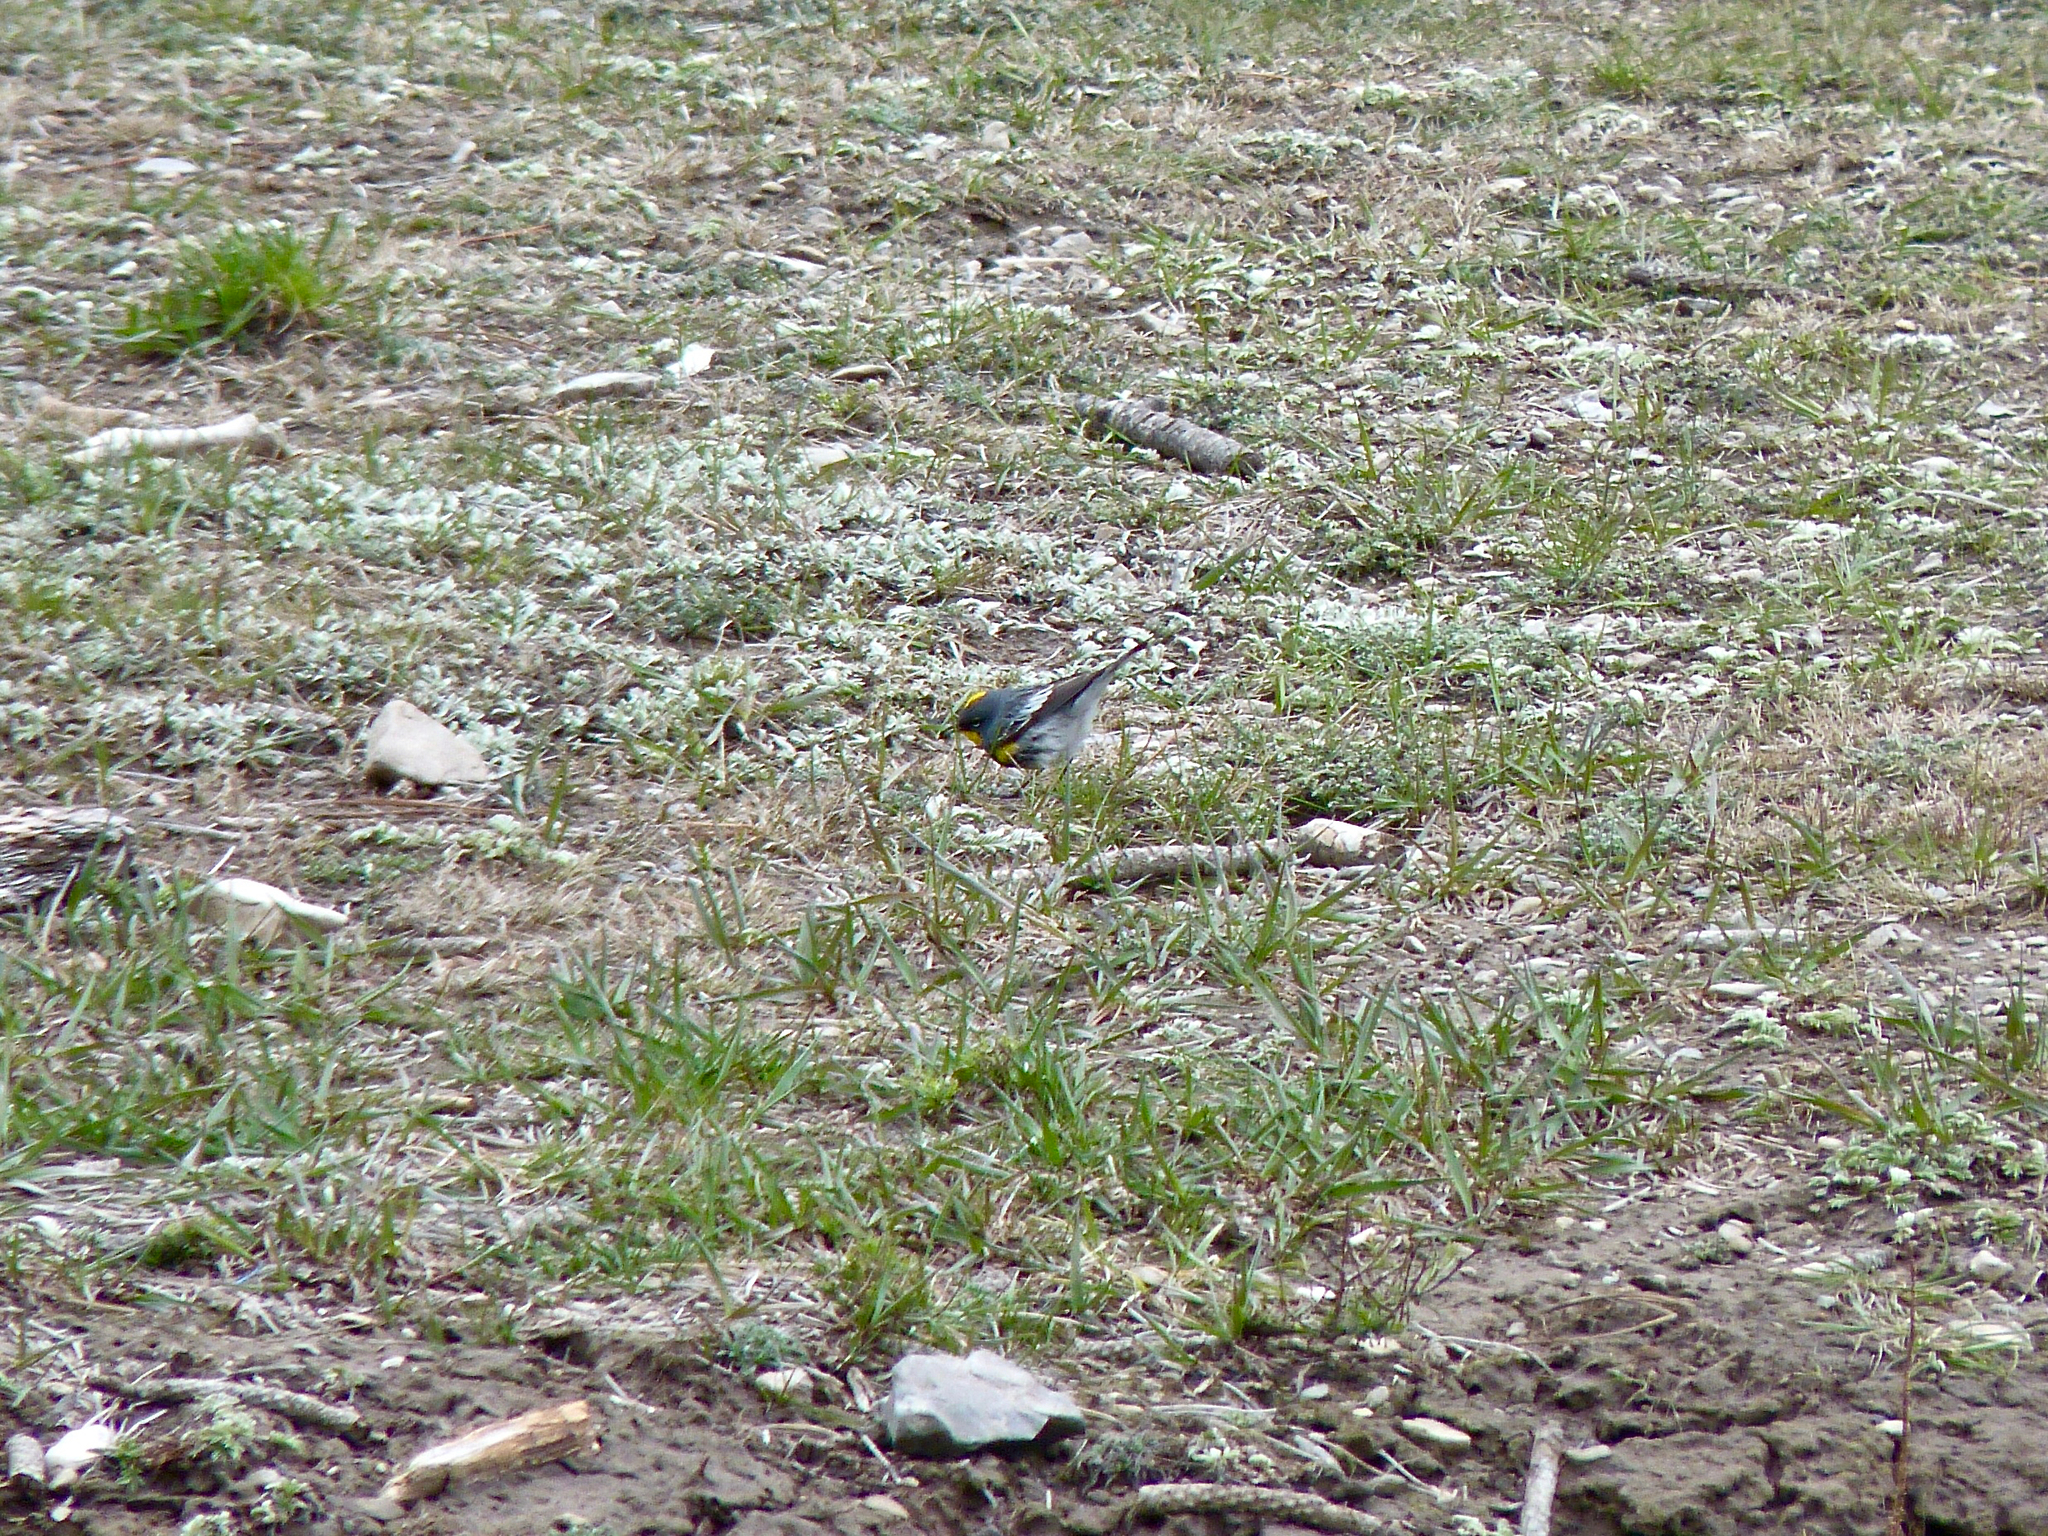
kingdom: Animalia
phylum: Chordata
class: Aves
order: Passeriformes
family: Parulidae
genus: Setophaga
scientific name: Setophaga auduboni
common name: Audubon's warbler
